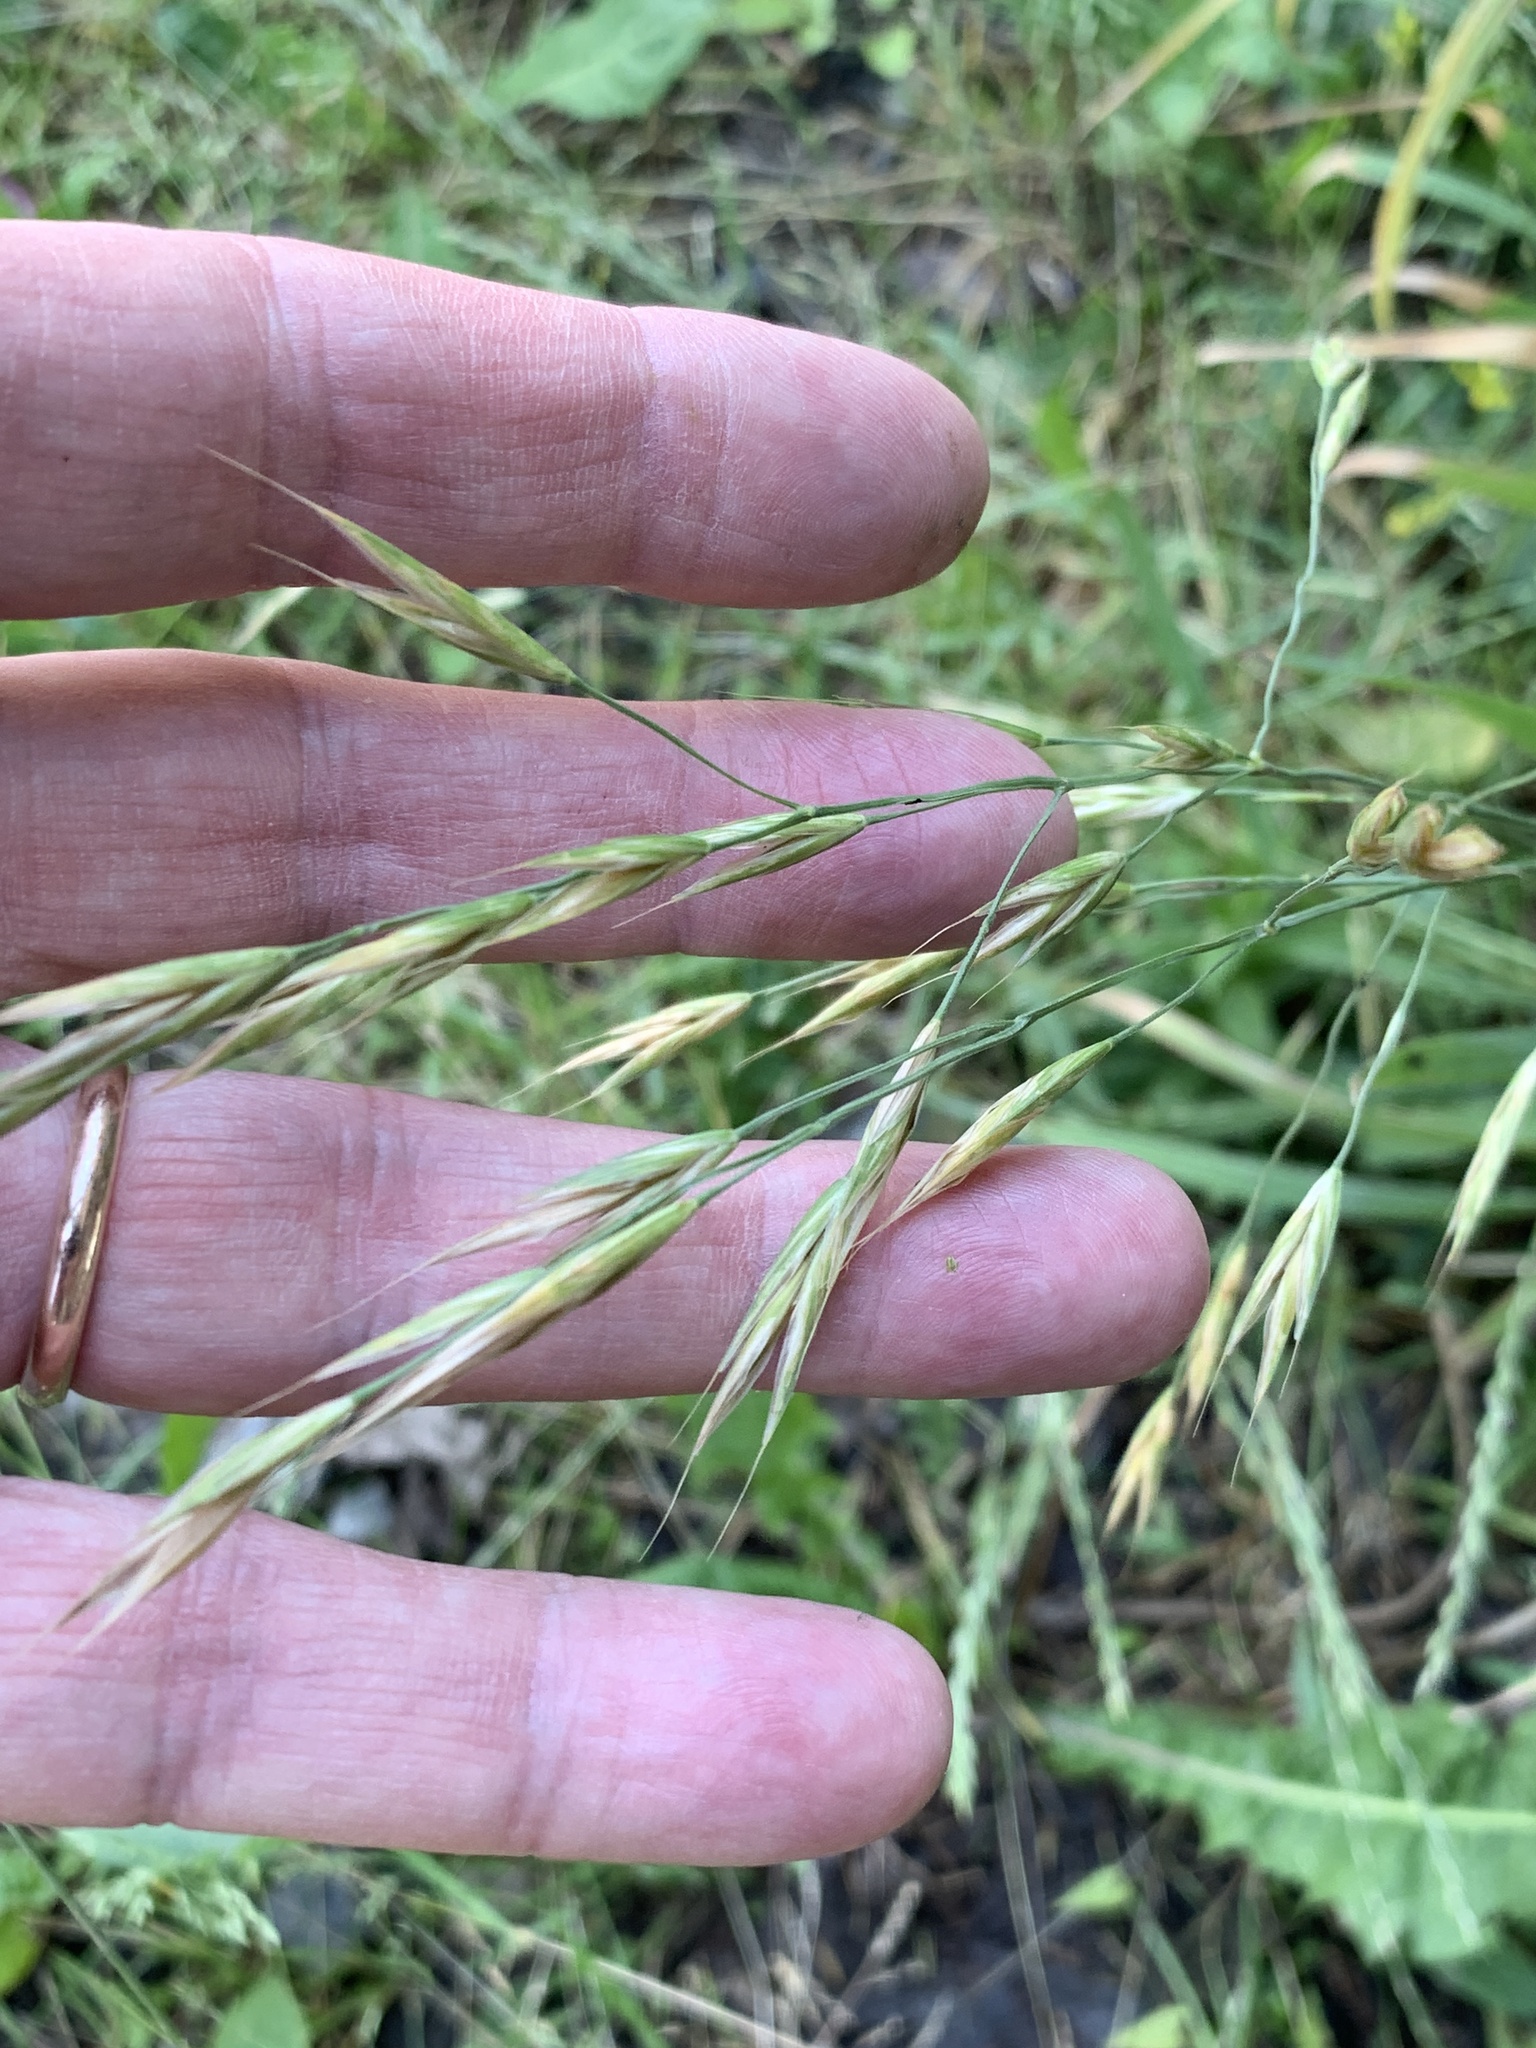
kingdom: Plantae
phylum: Tracheophyta
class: Liliopsida
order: Poales
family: Poaceae
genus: Bromus
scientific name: Bromus carinatus
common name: Mountain brome
